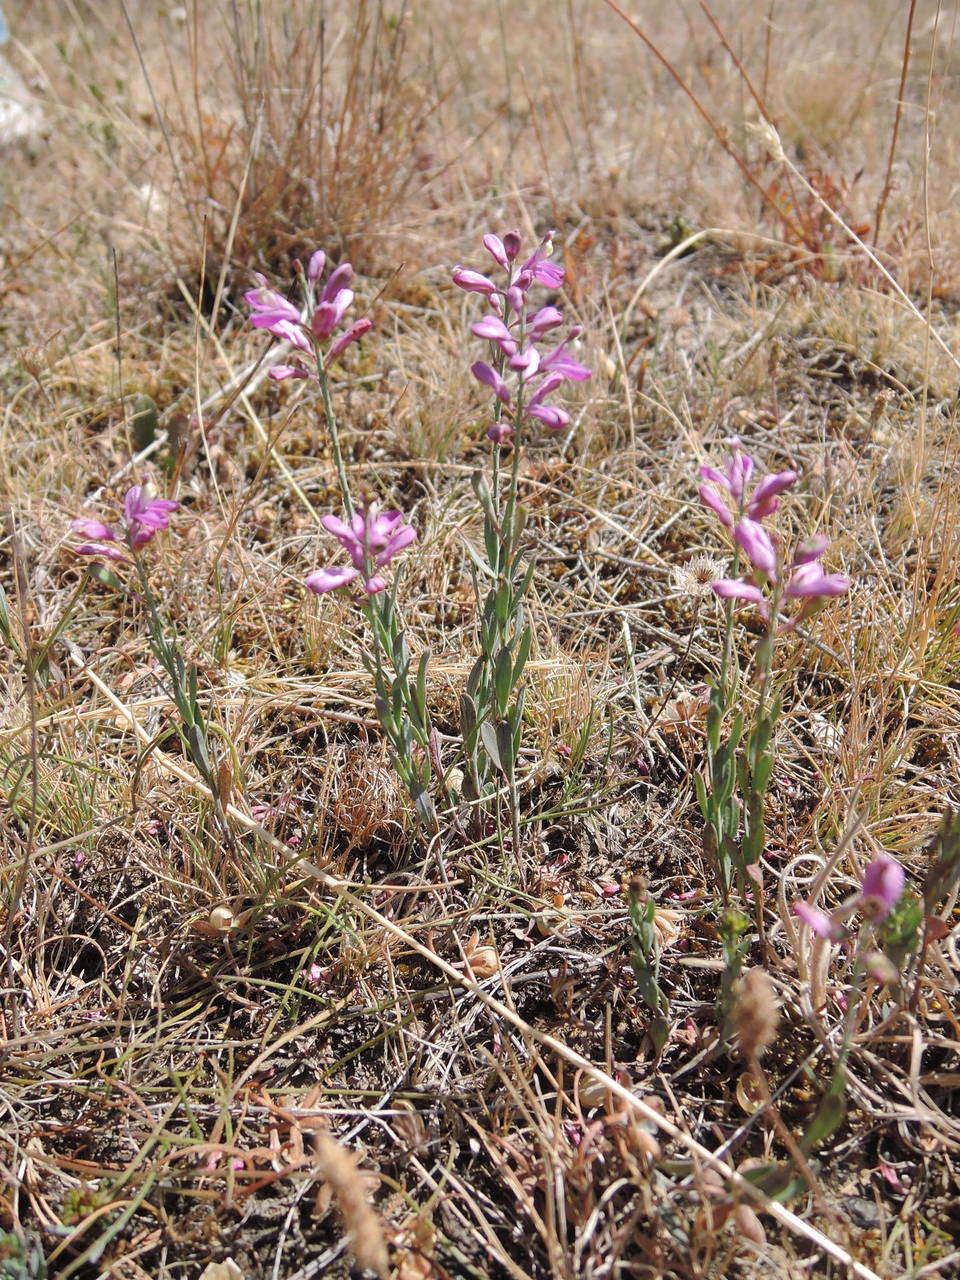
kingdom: Plantae
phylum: Tracheophyta
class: Magnoliopsida
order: Fabales
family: Polygalaceae
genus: Comesperma
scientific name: Comesperma polygaloides
